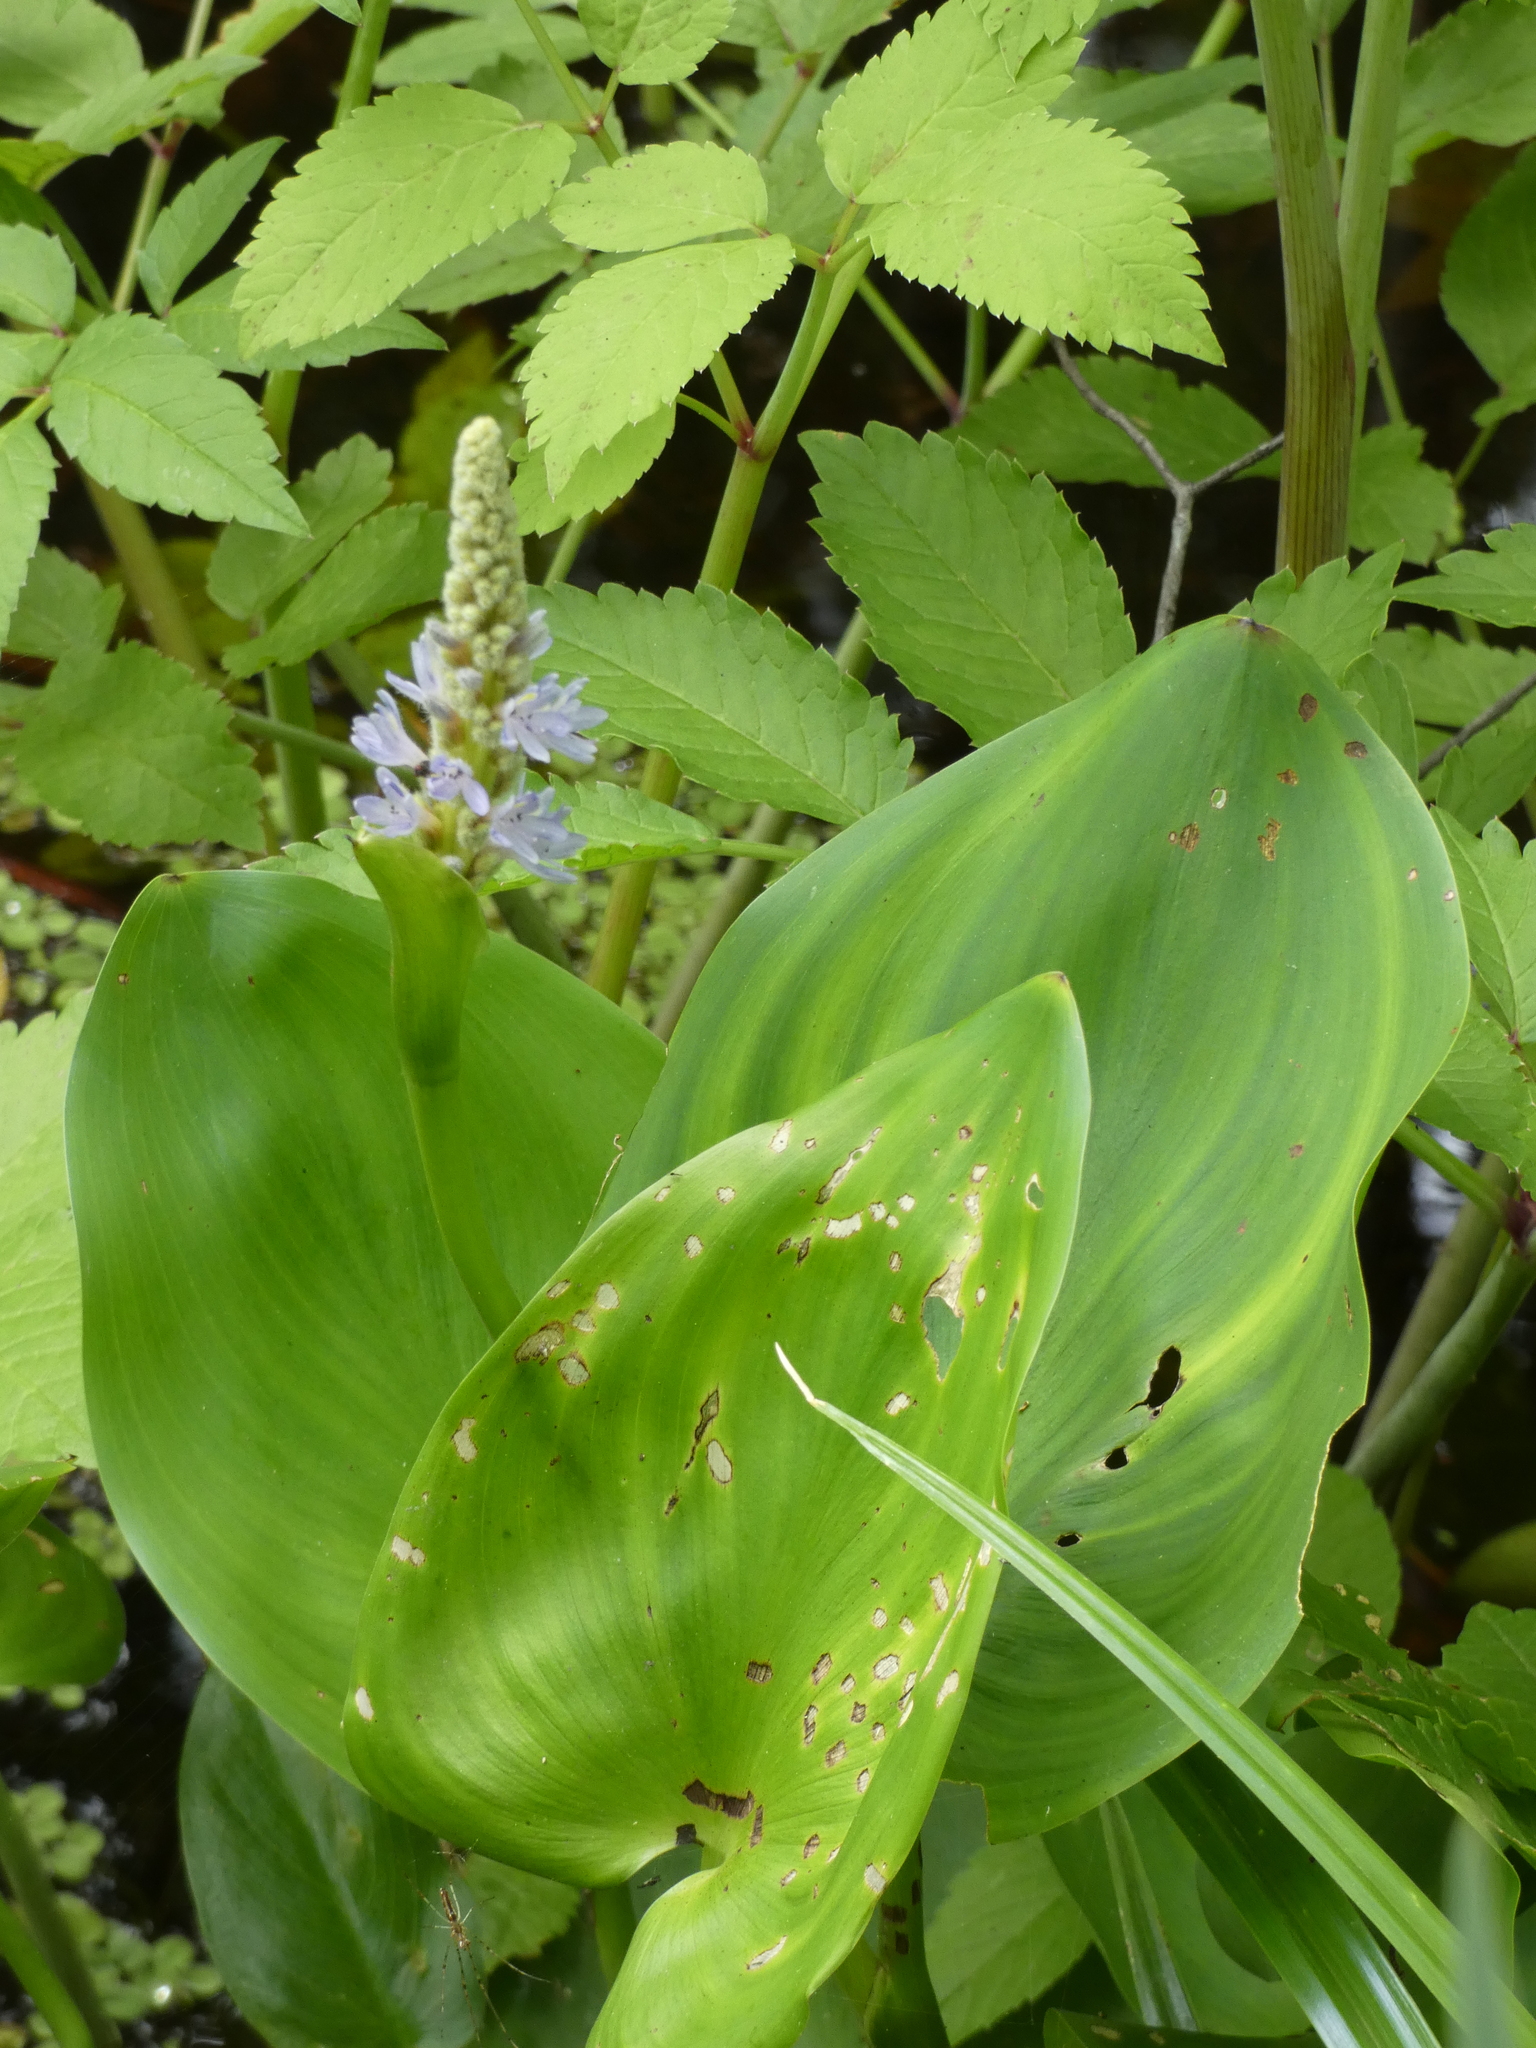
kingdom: Plantae
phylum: Tracheophyta
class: Liliopsida
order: Commelinales
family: Pontederiaceae
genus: Pontederia
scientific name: Pontederia cordata
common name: Pickerelweed
